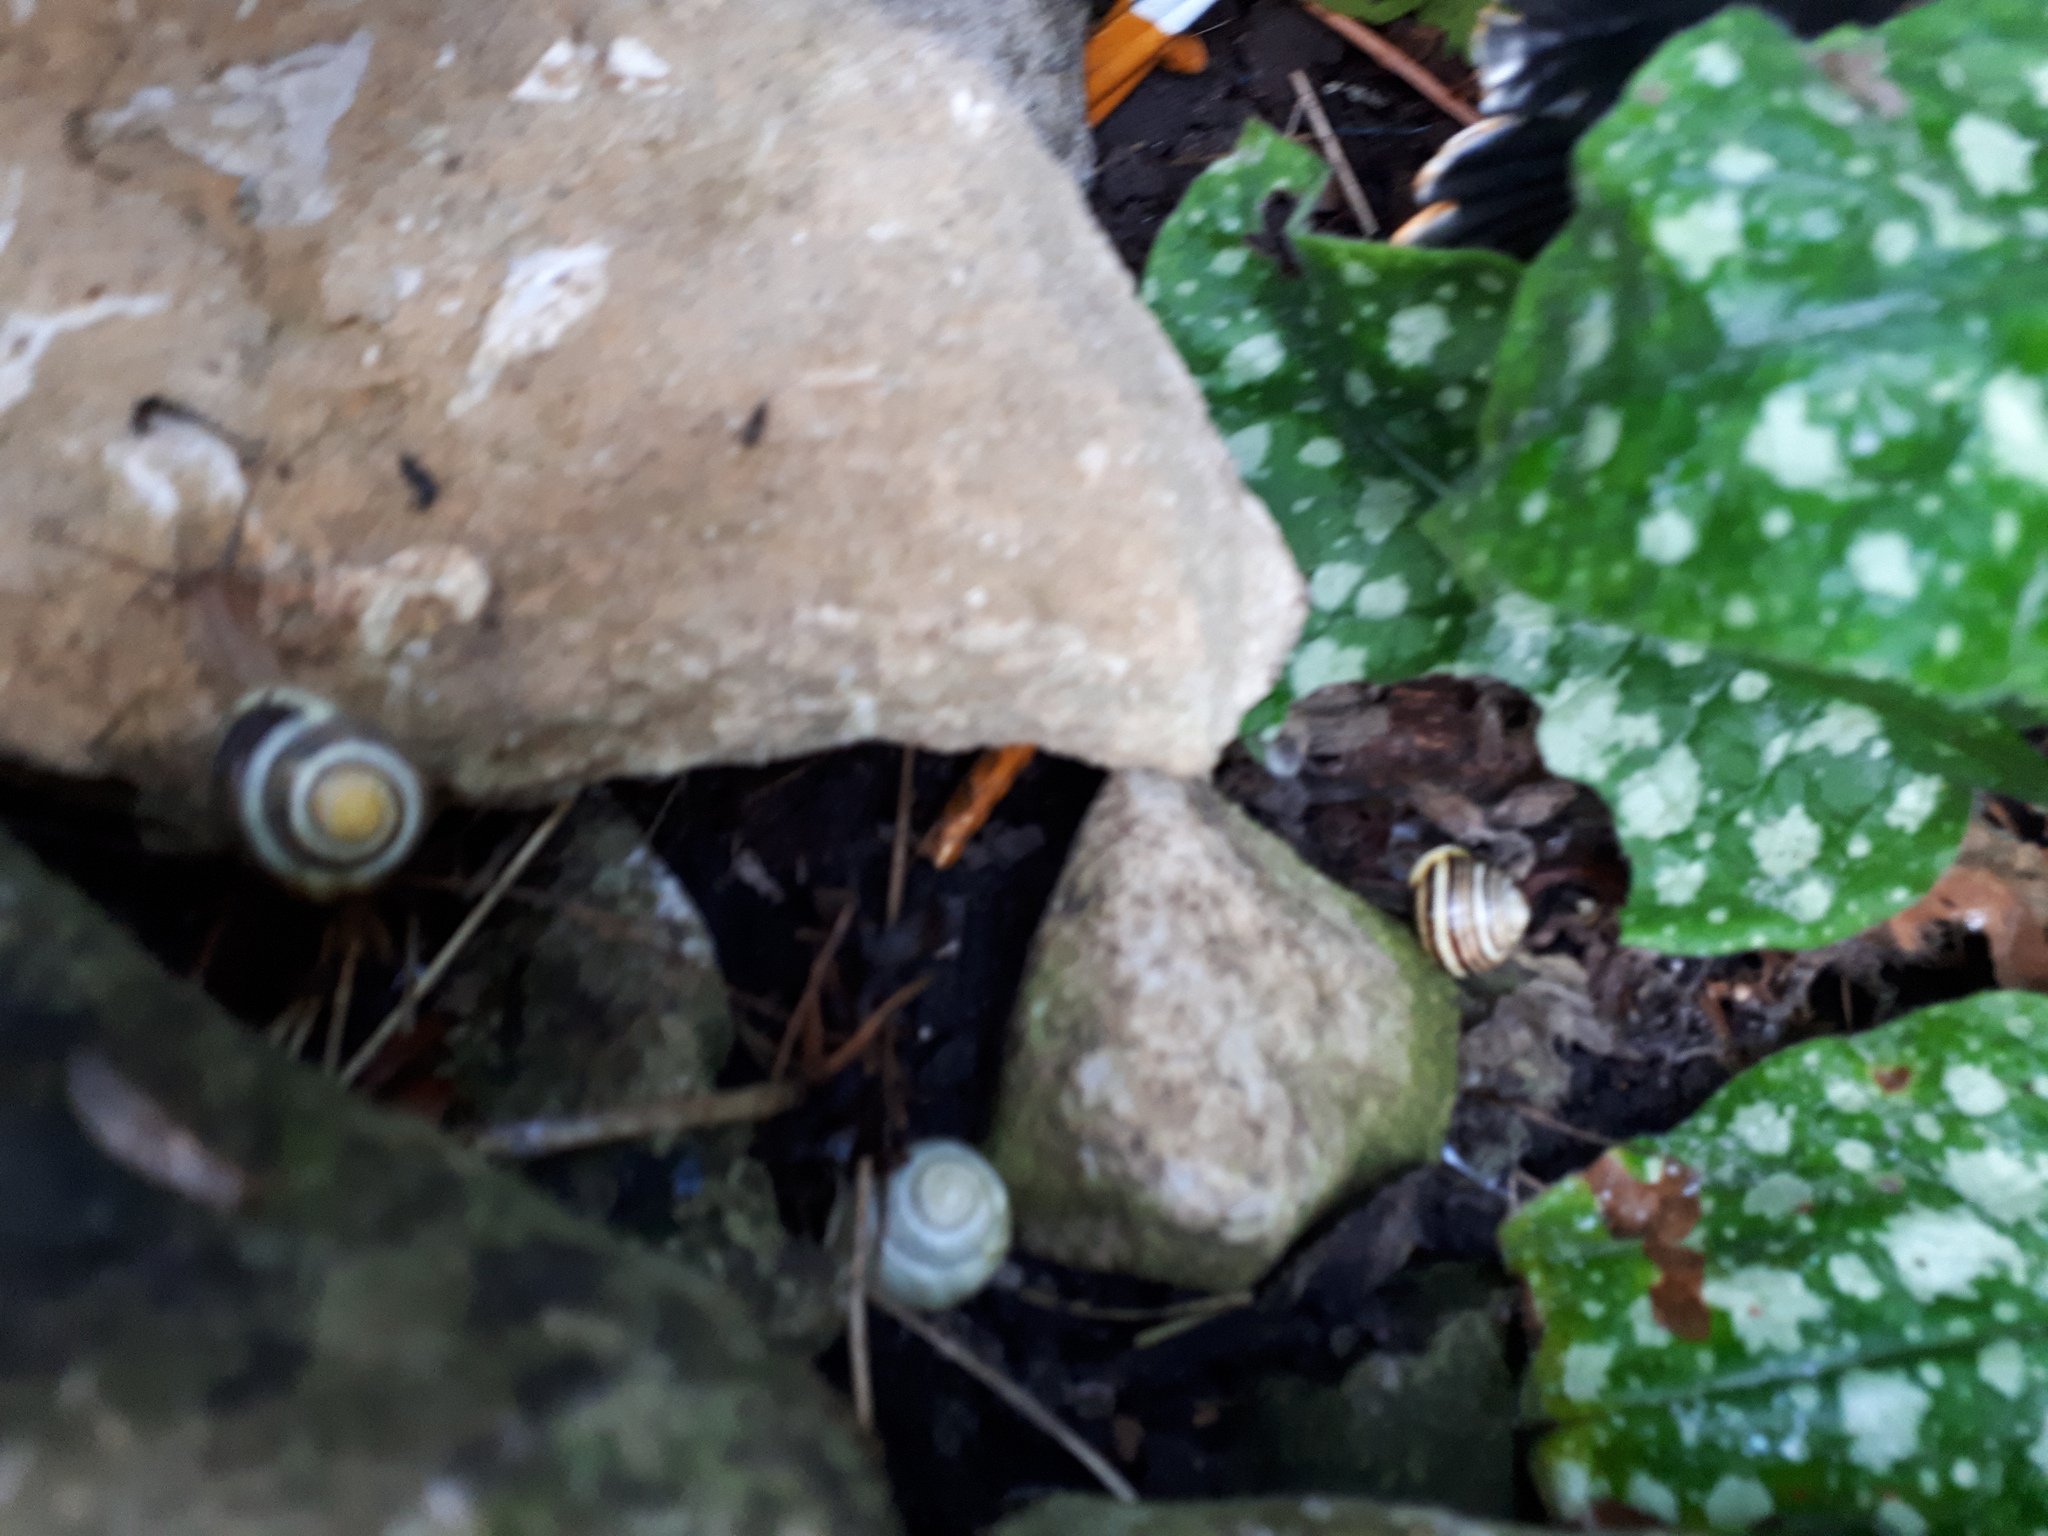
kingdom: Animalia
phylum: Mollusca
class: Gastropoda
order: Stylommatophora
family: Helicidae
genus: Cepaea
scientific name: Cepaea hortensis
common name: White-lip gardensnail
